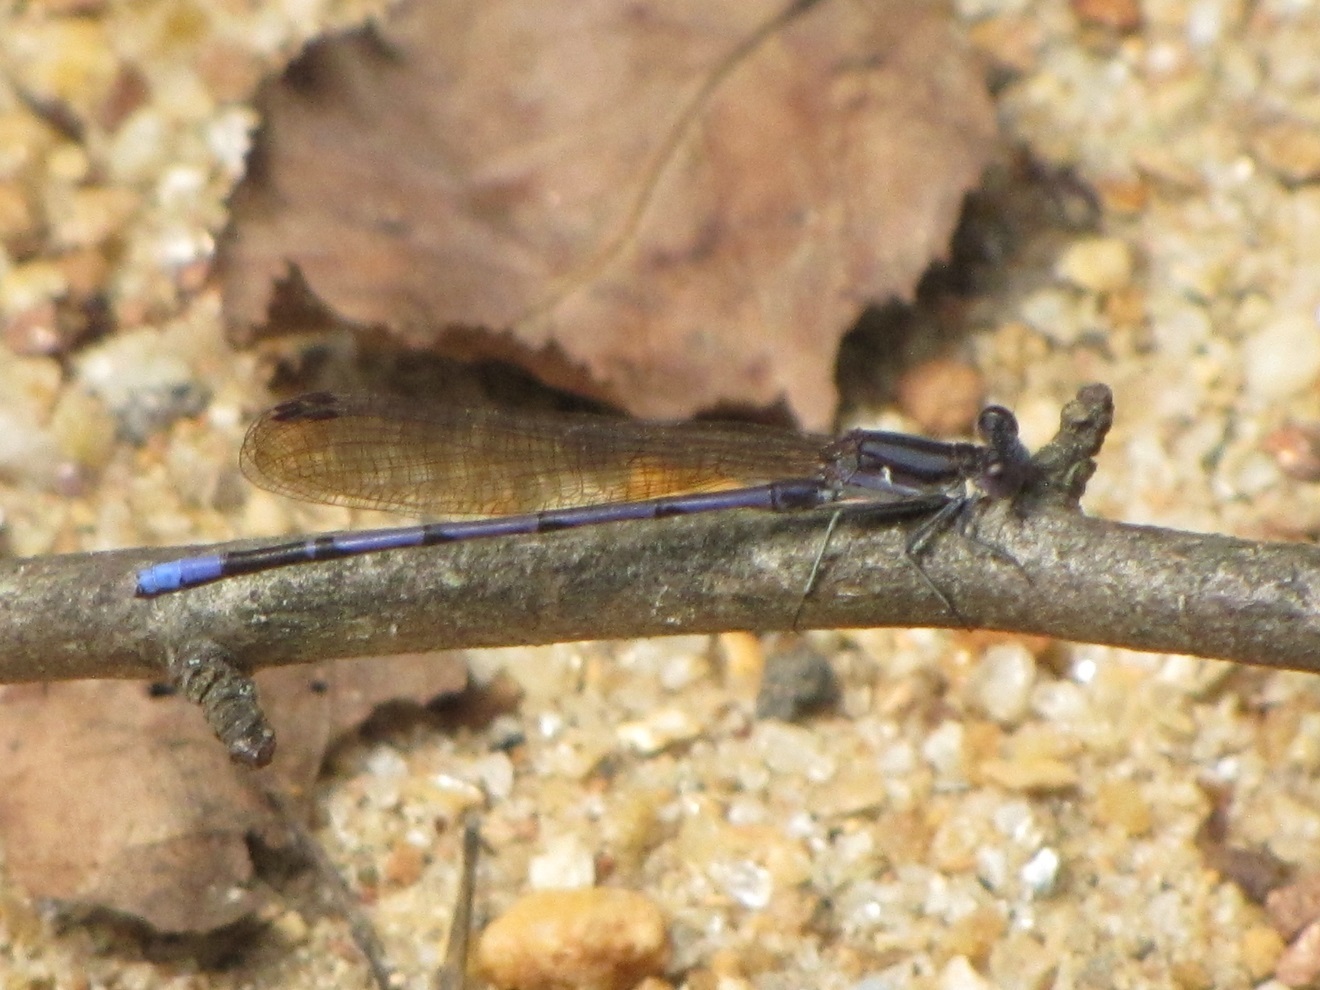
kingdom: Animalia
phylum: Arthropoda
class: Insecta
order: Odonata
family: Coenagrionidae
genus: Argia
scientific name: Argia fumipennis
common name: Variable dancer
